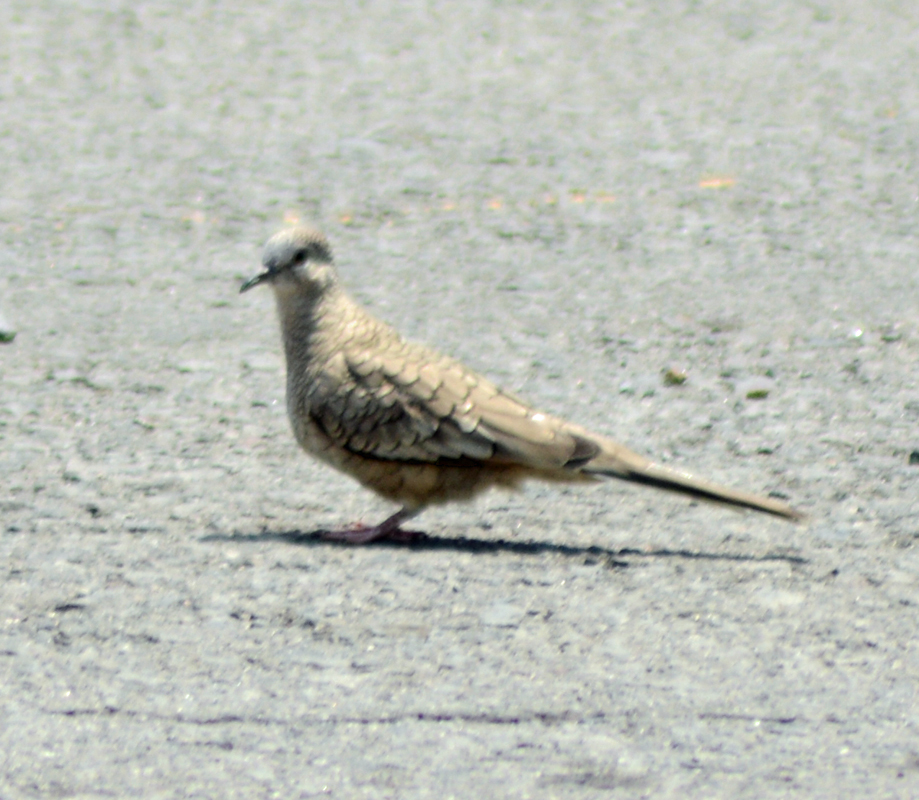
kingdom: Animalia
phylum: Chordata
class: Aves
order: Columbiformes
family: Columbidae
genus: Columbina
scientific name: Columbina inca
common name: Inca dove
